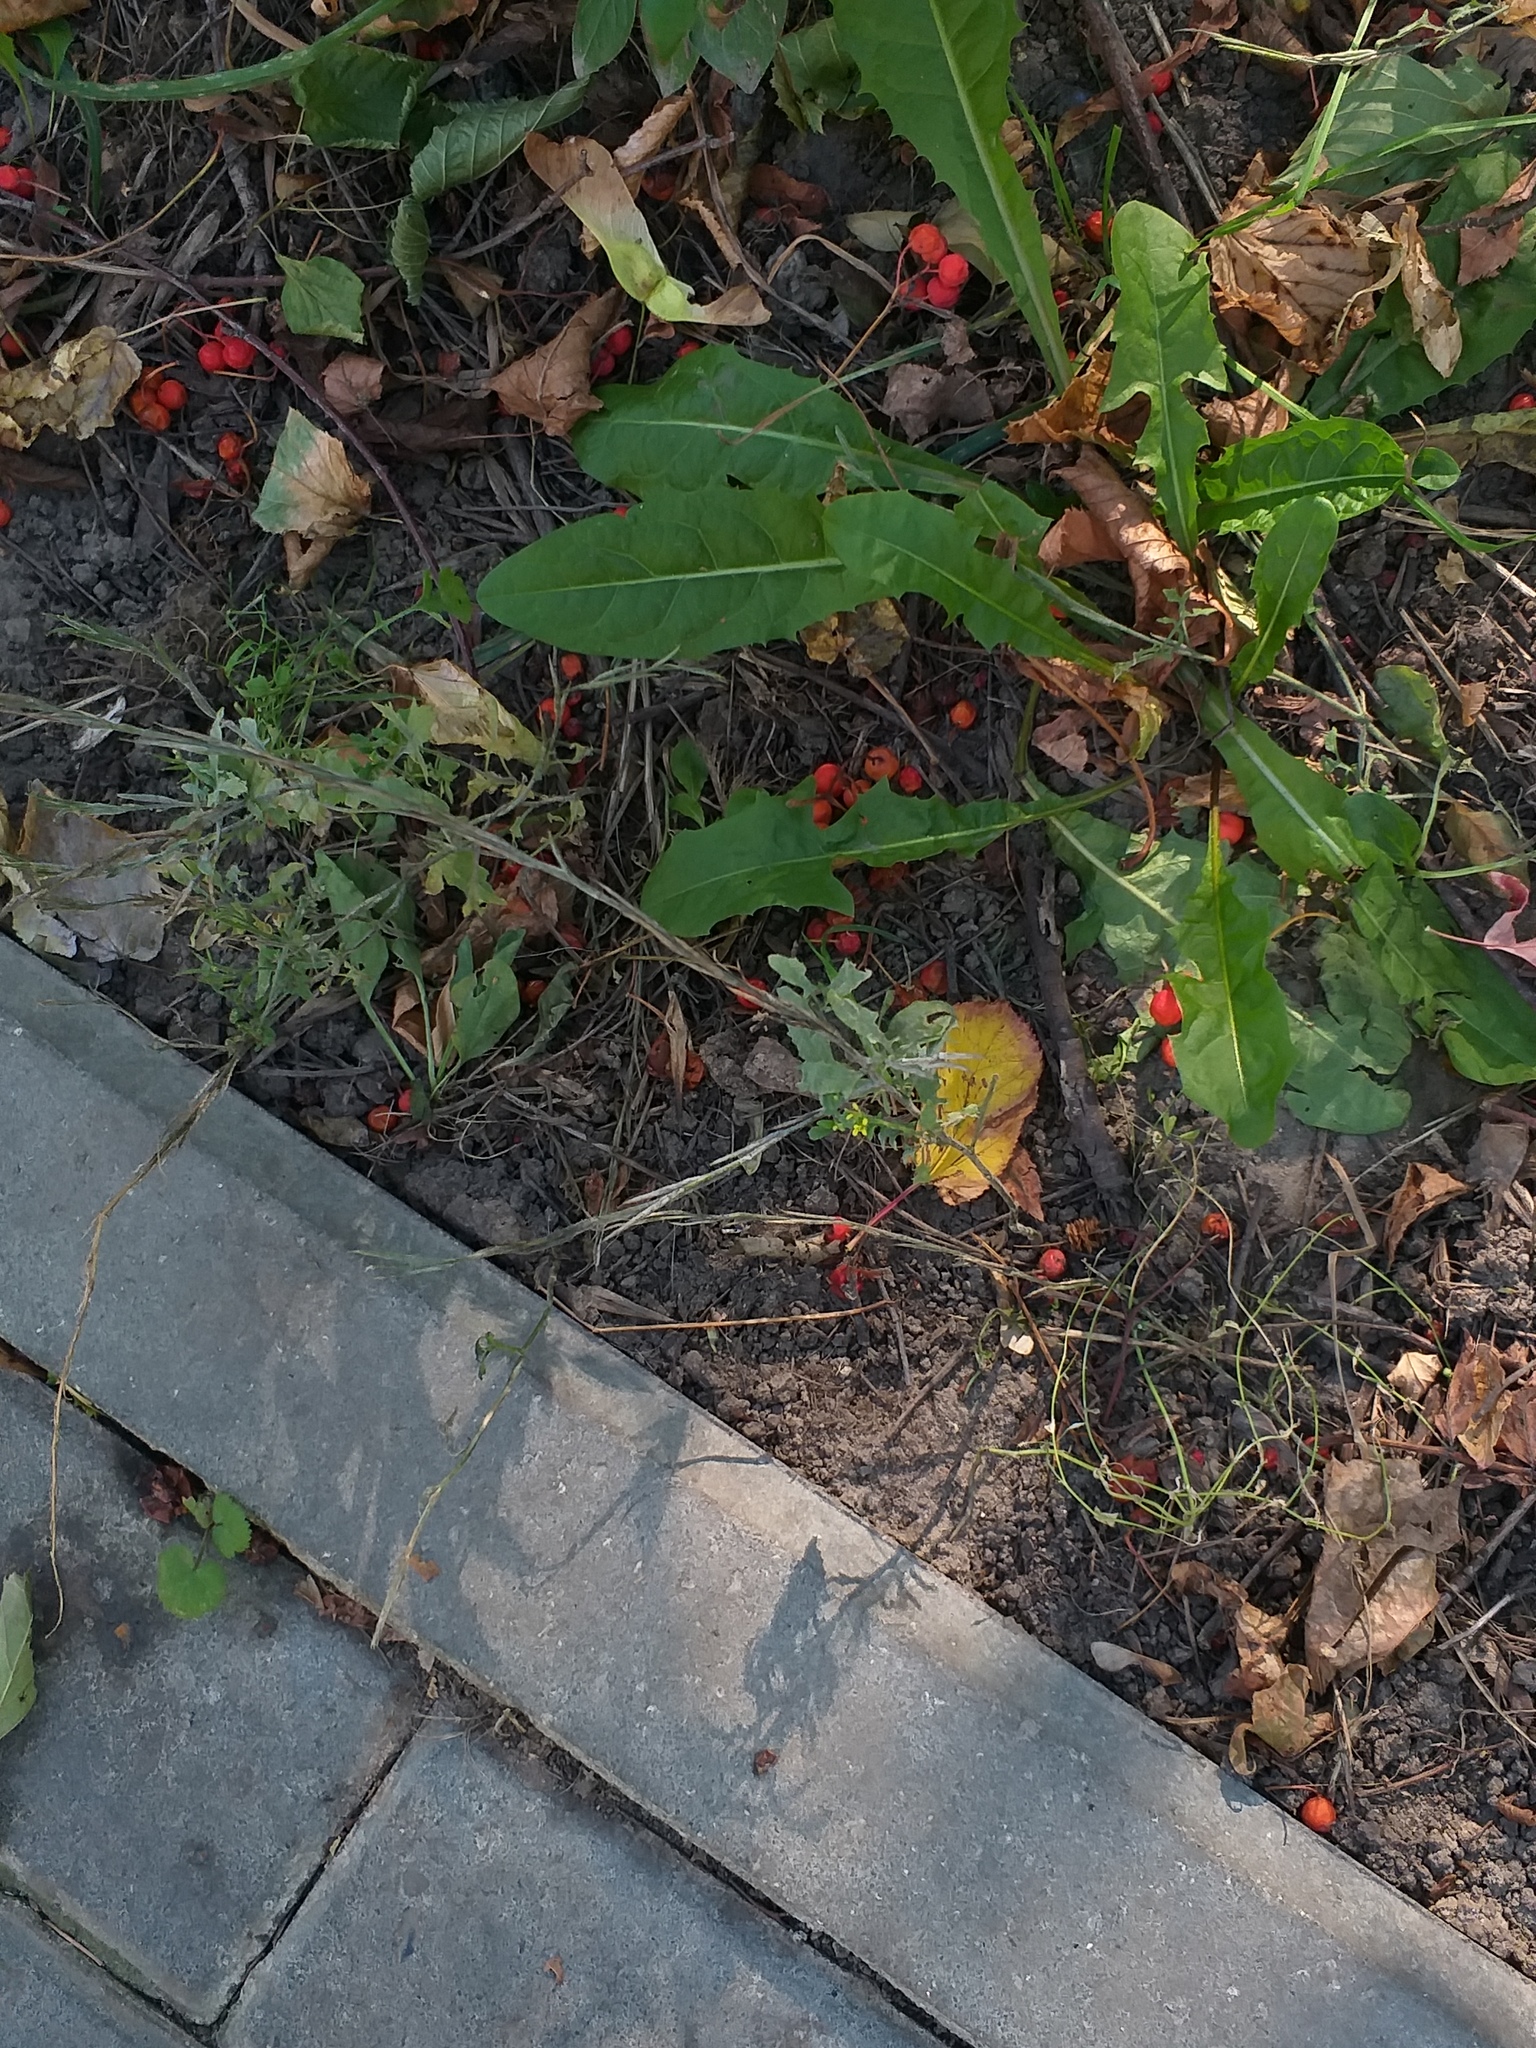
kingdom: Plantae
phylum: Tracheophyta
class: Magnoliopsida
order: Brassicales
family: Brassicaceae
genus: Sisymbrium
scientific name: Sisymbrium officinale
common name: Hedge mustard
